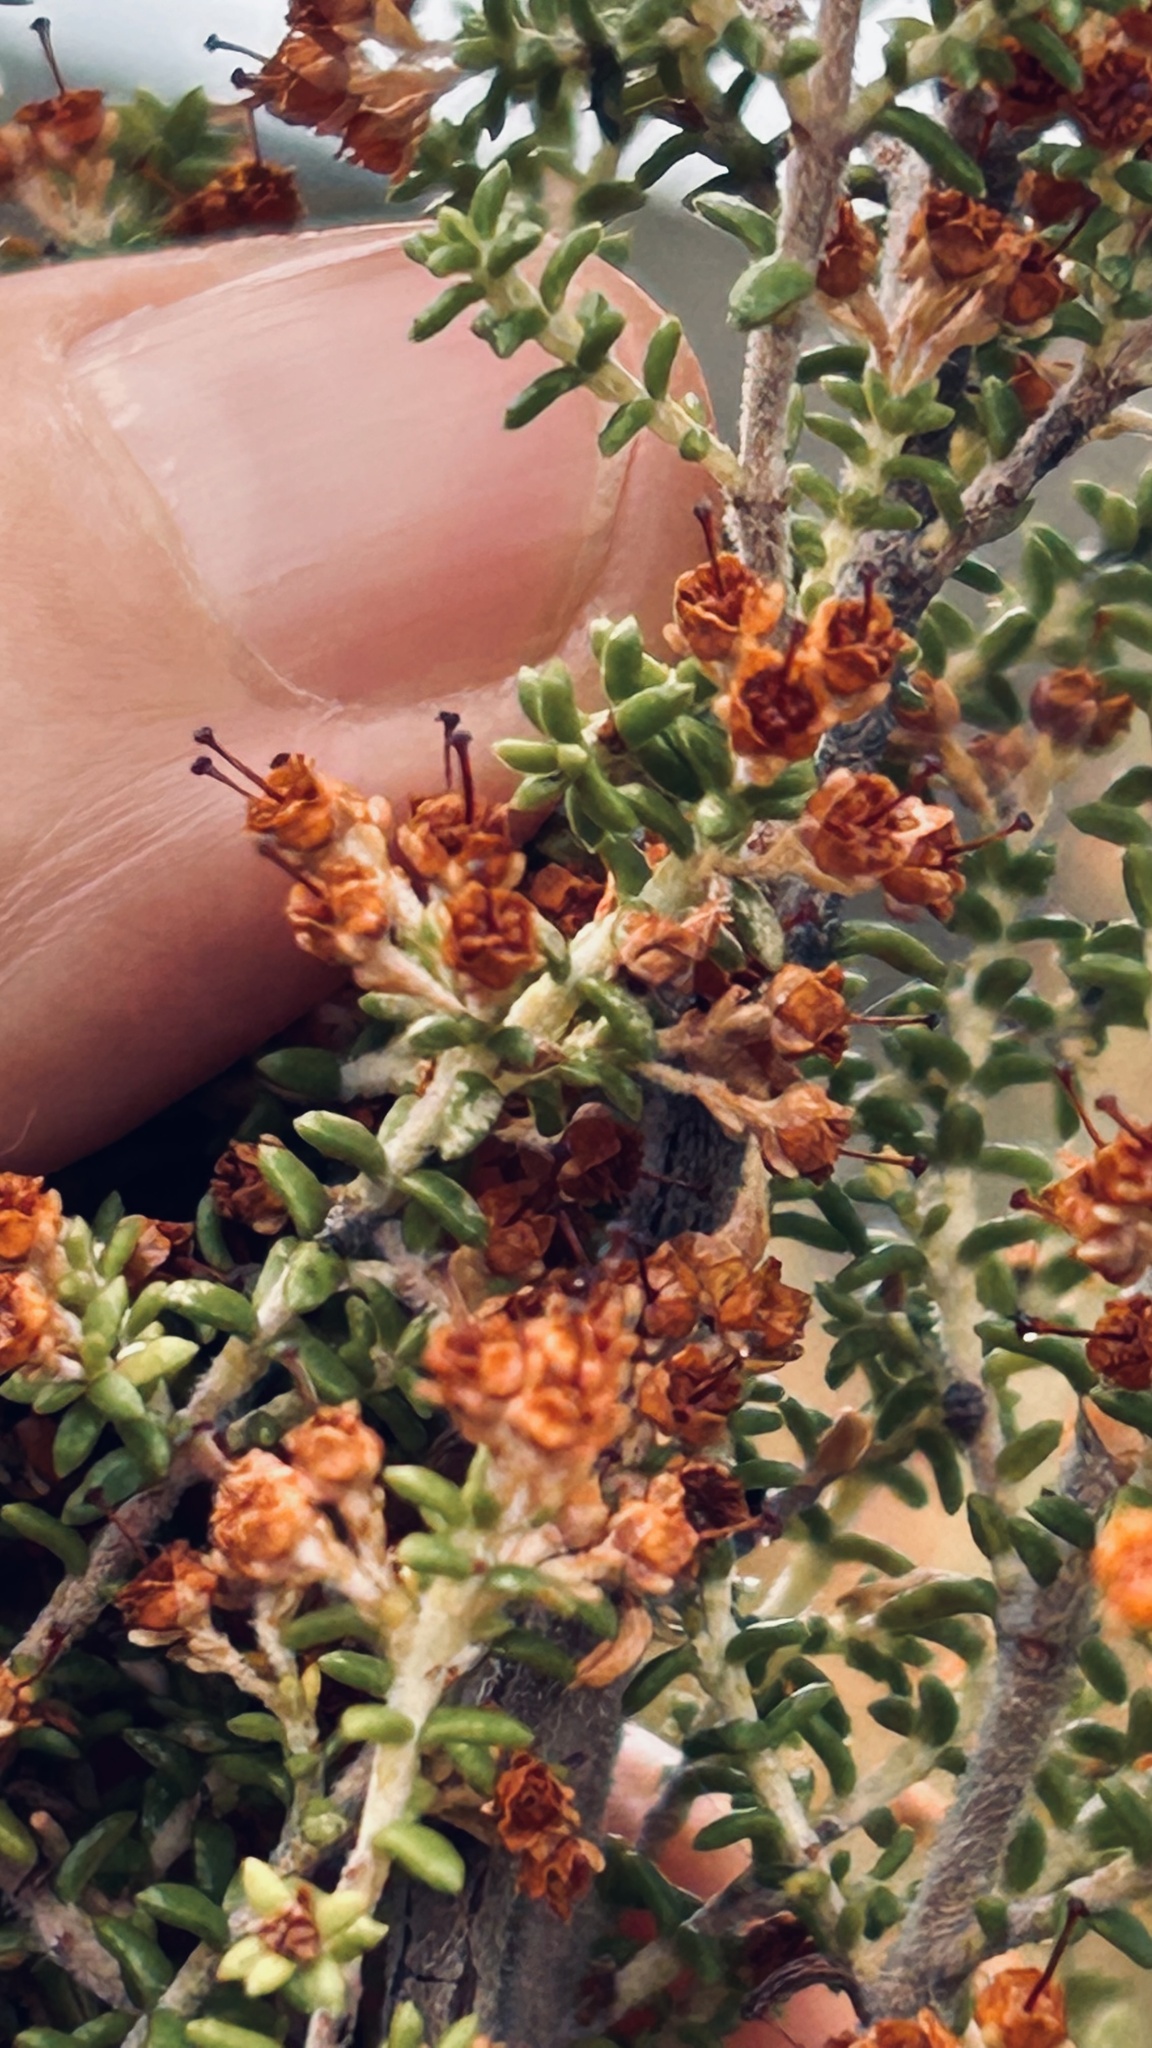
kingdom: Plantae
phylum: Tracheophyta
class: Magnoliopsida
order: Ericales
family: Ericaceae
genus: Erica
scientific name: Erica arenaria
